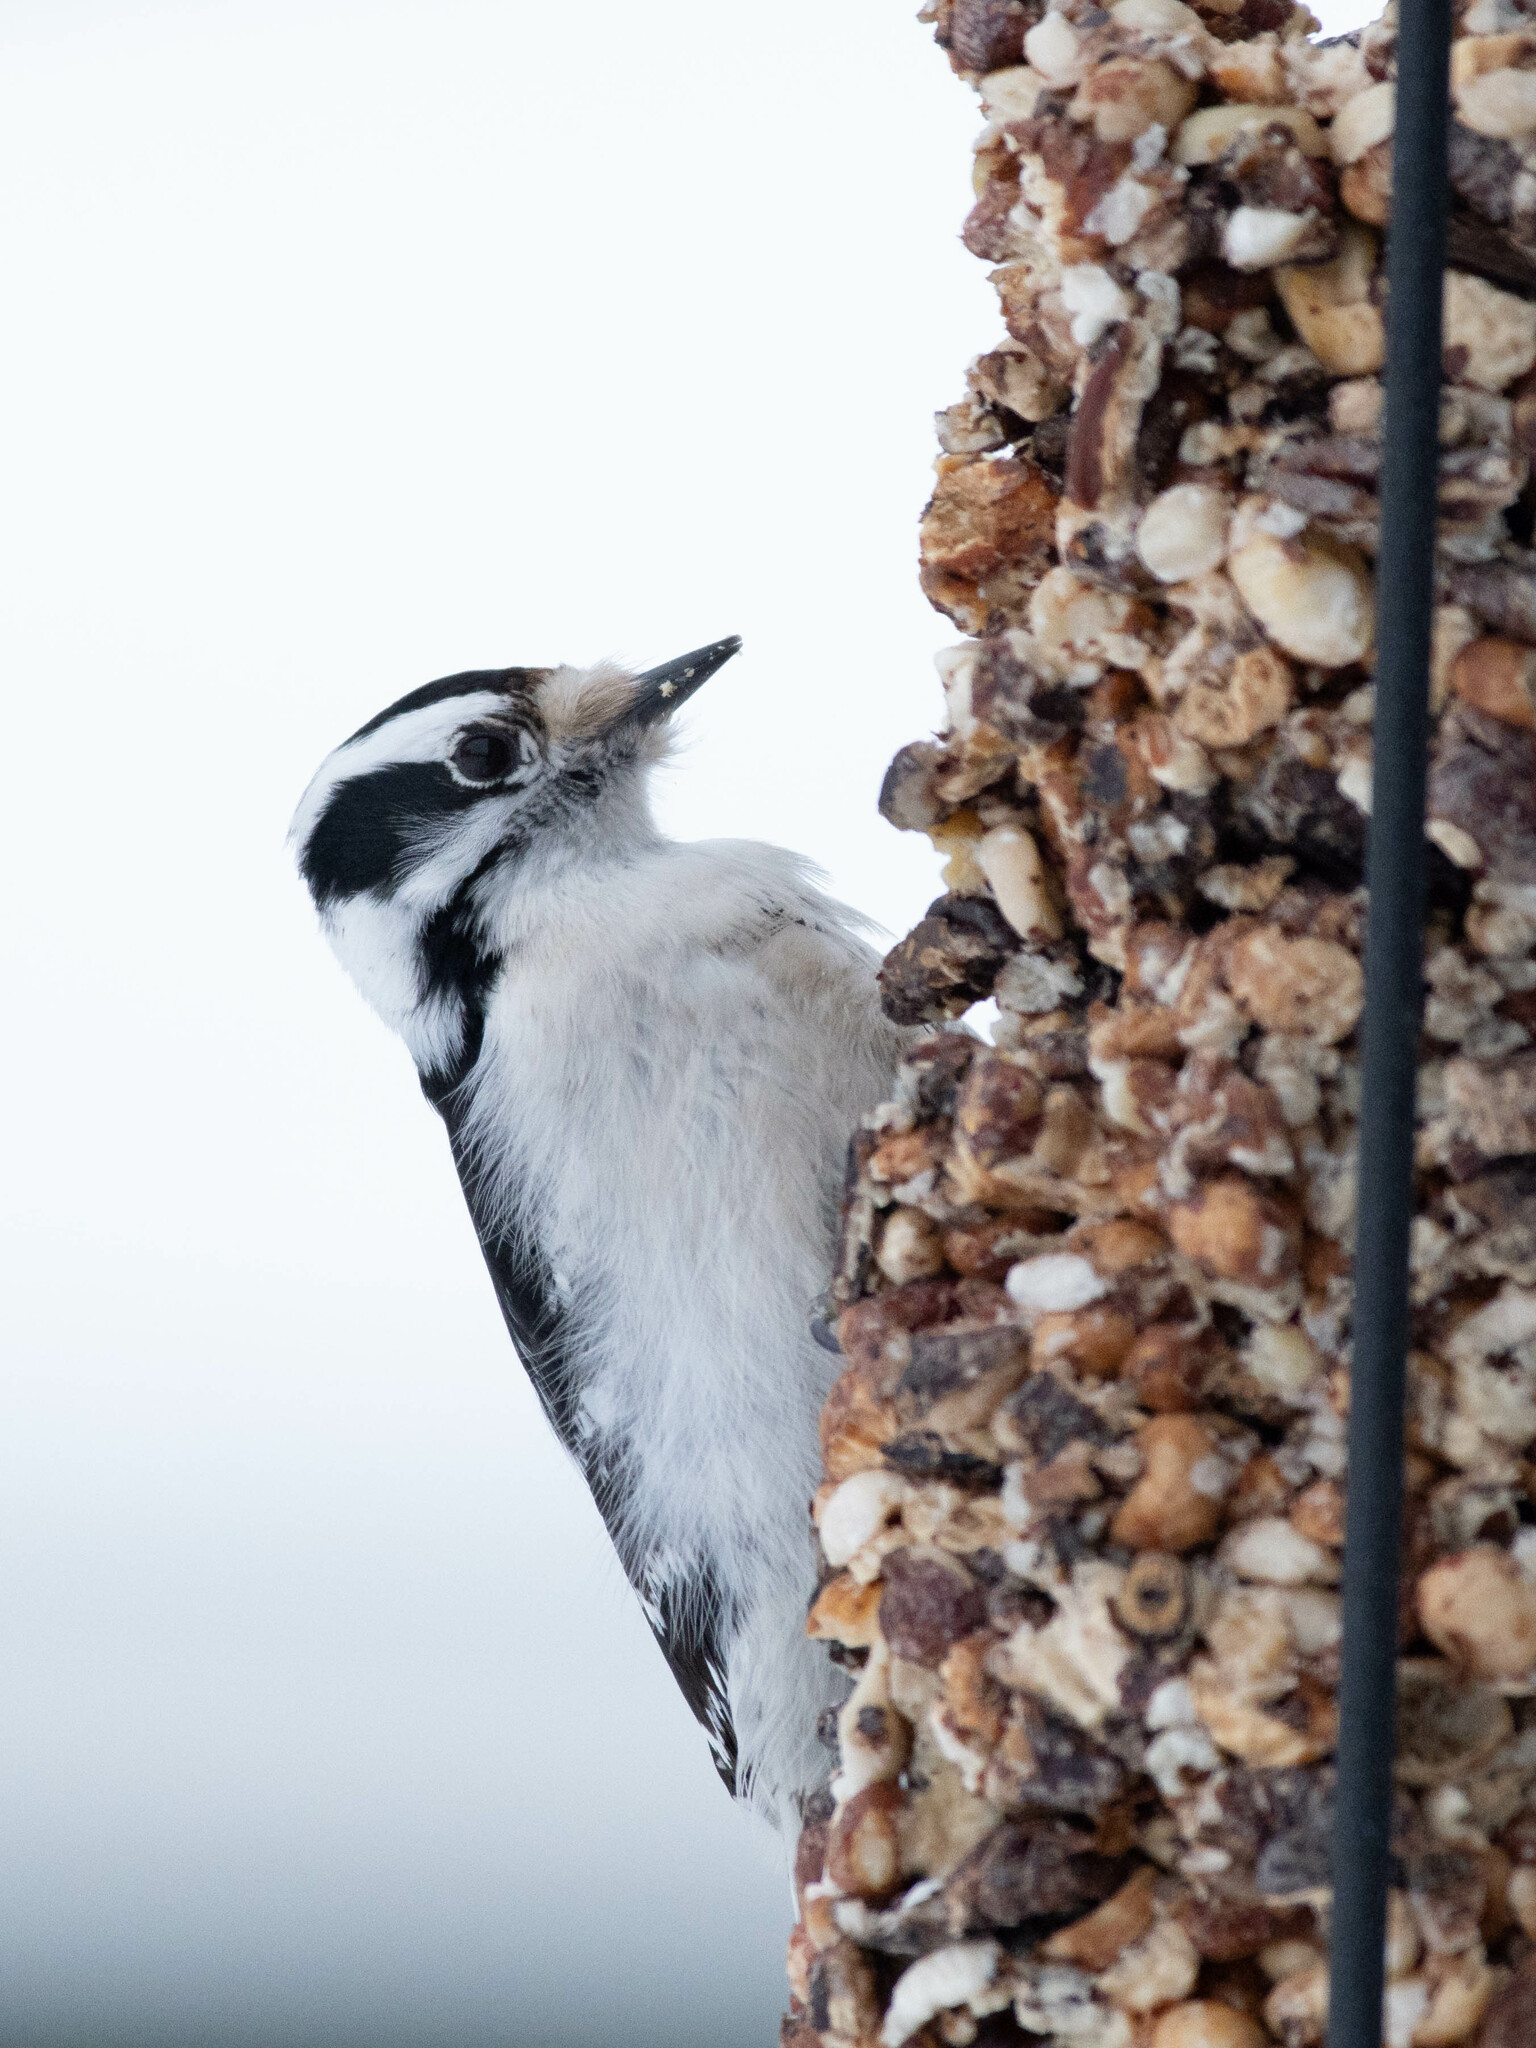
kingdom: Animalia
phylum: Chordata
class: Aves
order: Piciformes
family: Picidae
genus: Dryobates
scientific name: Dryobates pubescens
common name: Downy woodpecker
